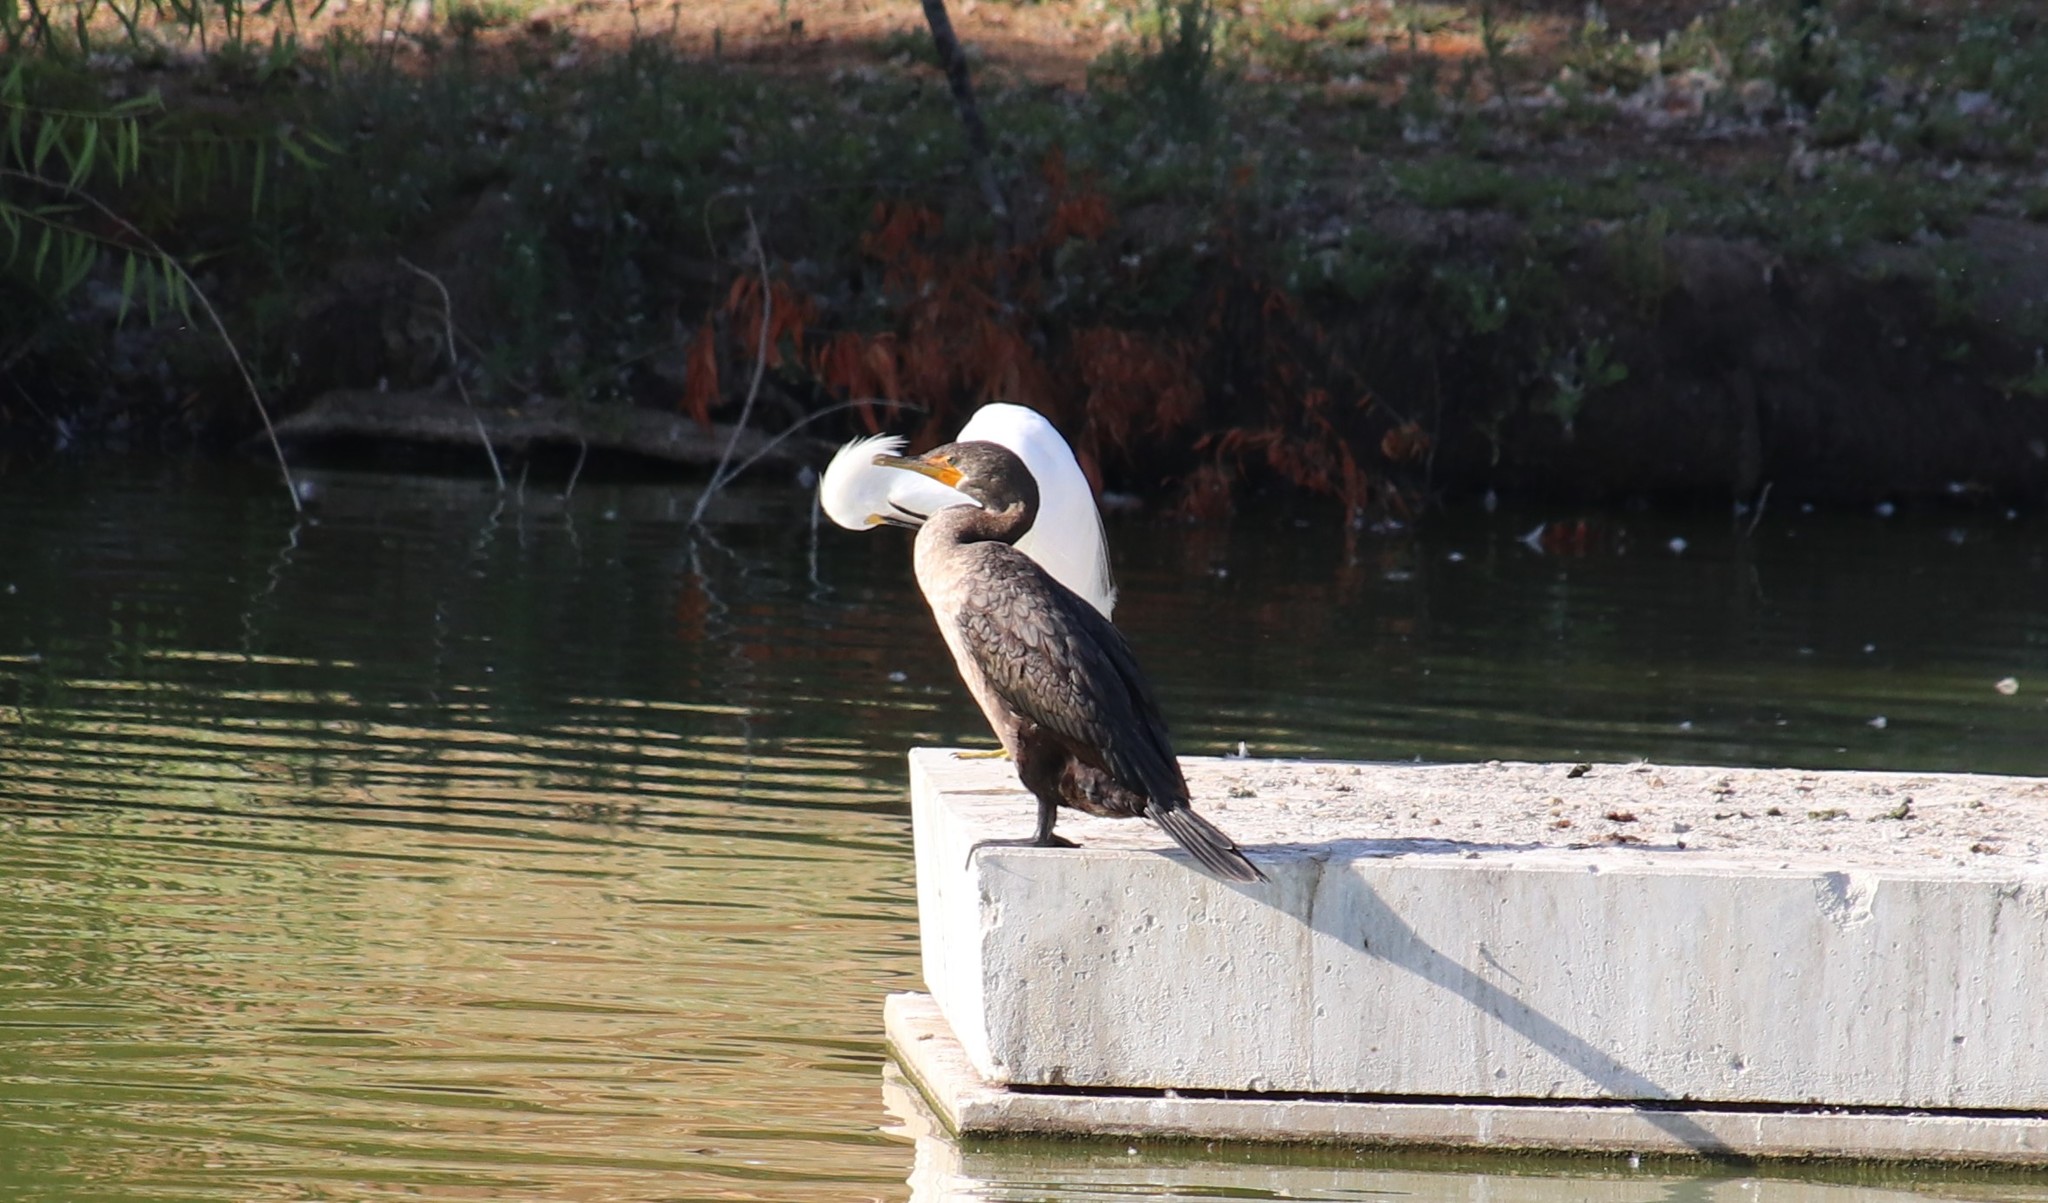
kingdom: Animalia
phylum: Chordata
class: Aves
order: Suliformes
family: Phalacrocoracidae
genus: Phalacrocorax
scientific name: Phalacrocorax auritus
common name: Double-crested cormorant
